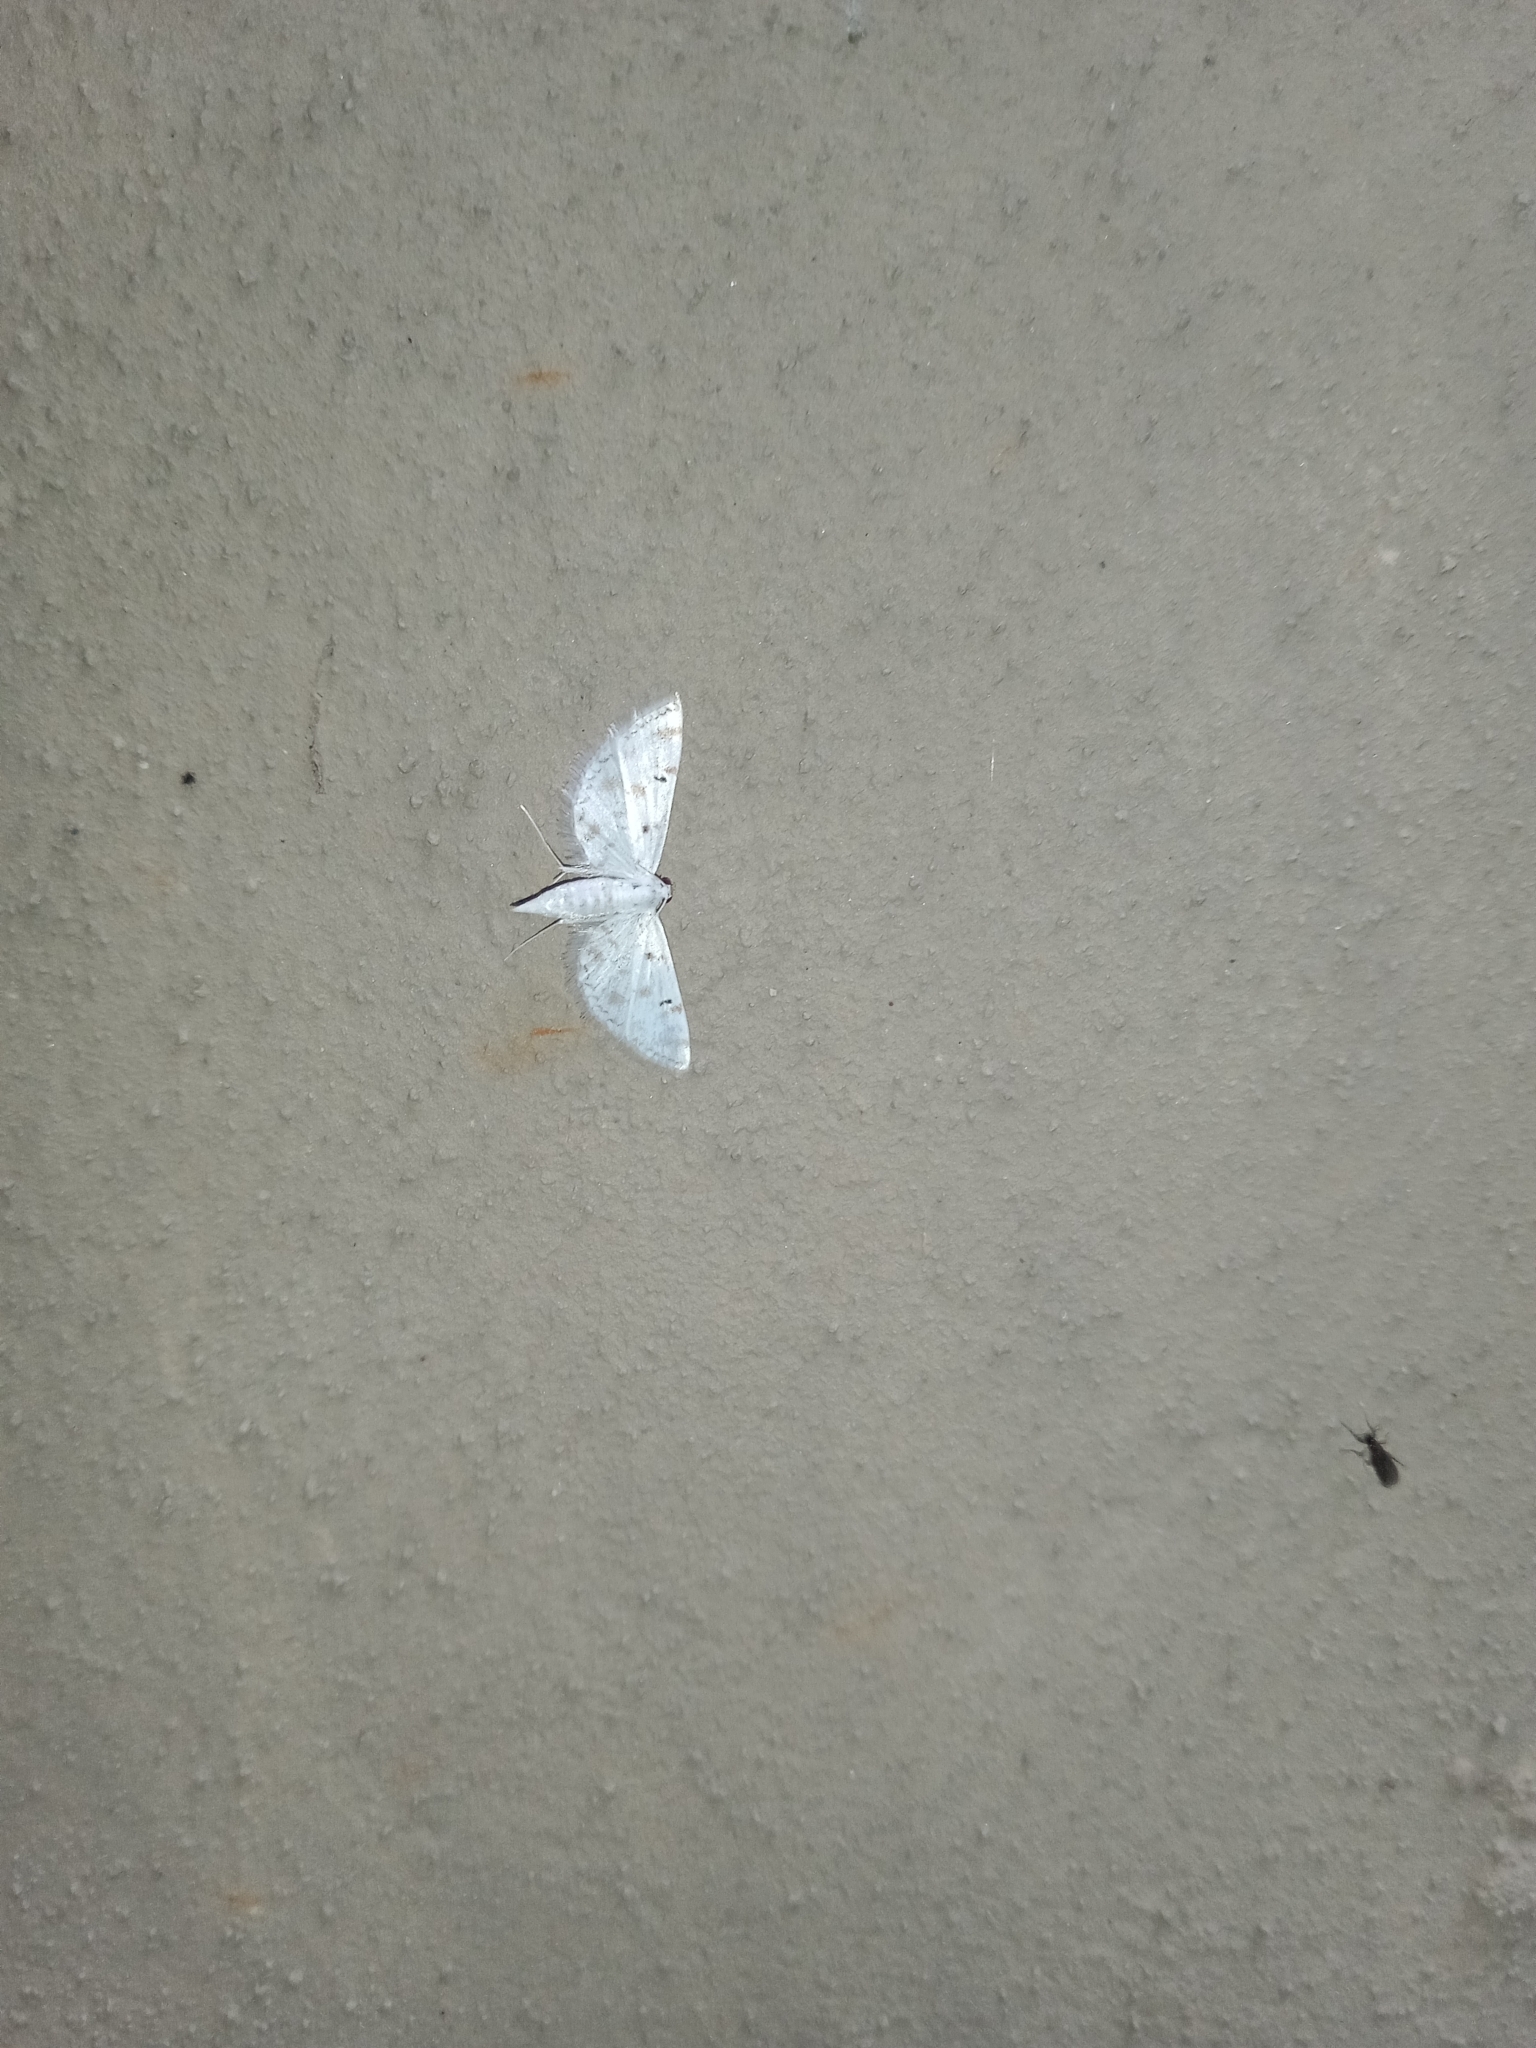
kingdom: Animalia
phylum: Arthropoda
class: Insecta
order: Lepidoptera
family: Crambidae
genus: Parapoynx
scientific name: Parapoynx stagnalis
